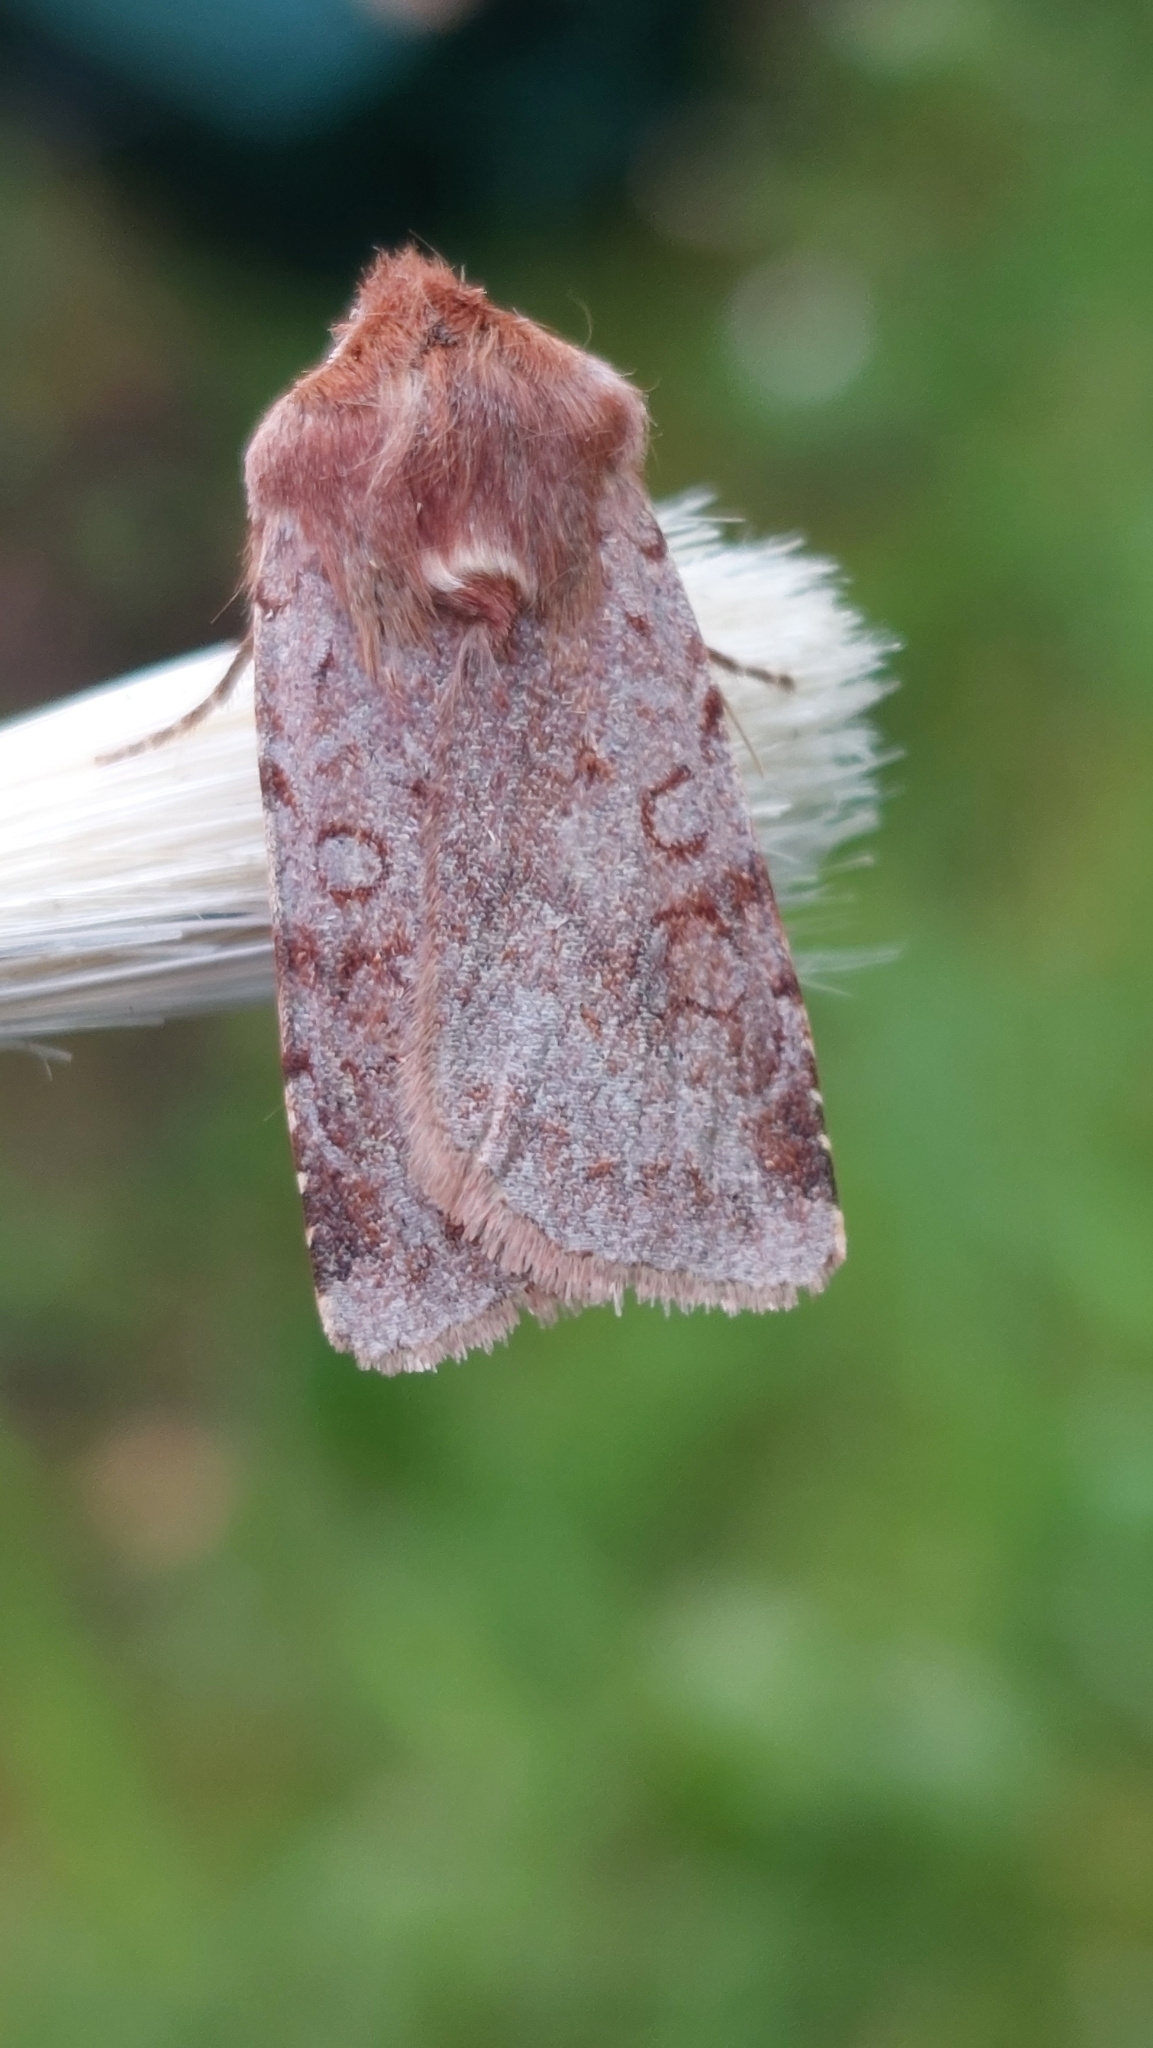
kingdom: Animalia
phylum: Arthropoda
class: Insecta
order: Lepidoptera
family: Noctuidae
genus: Cerastis
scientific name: Cerastis rubricosa
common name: Red chestnut
